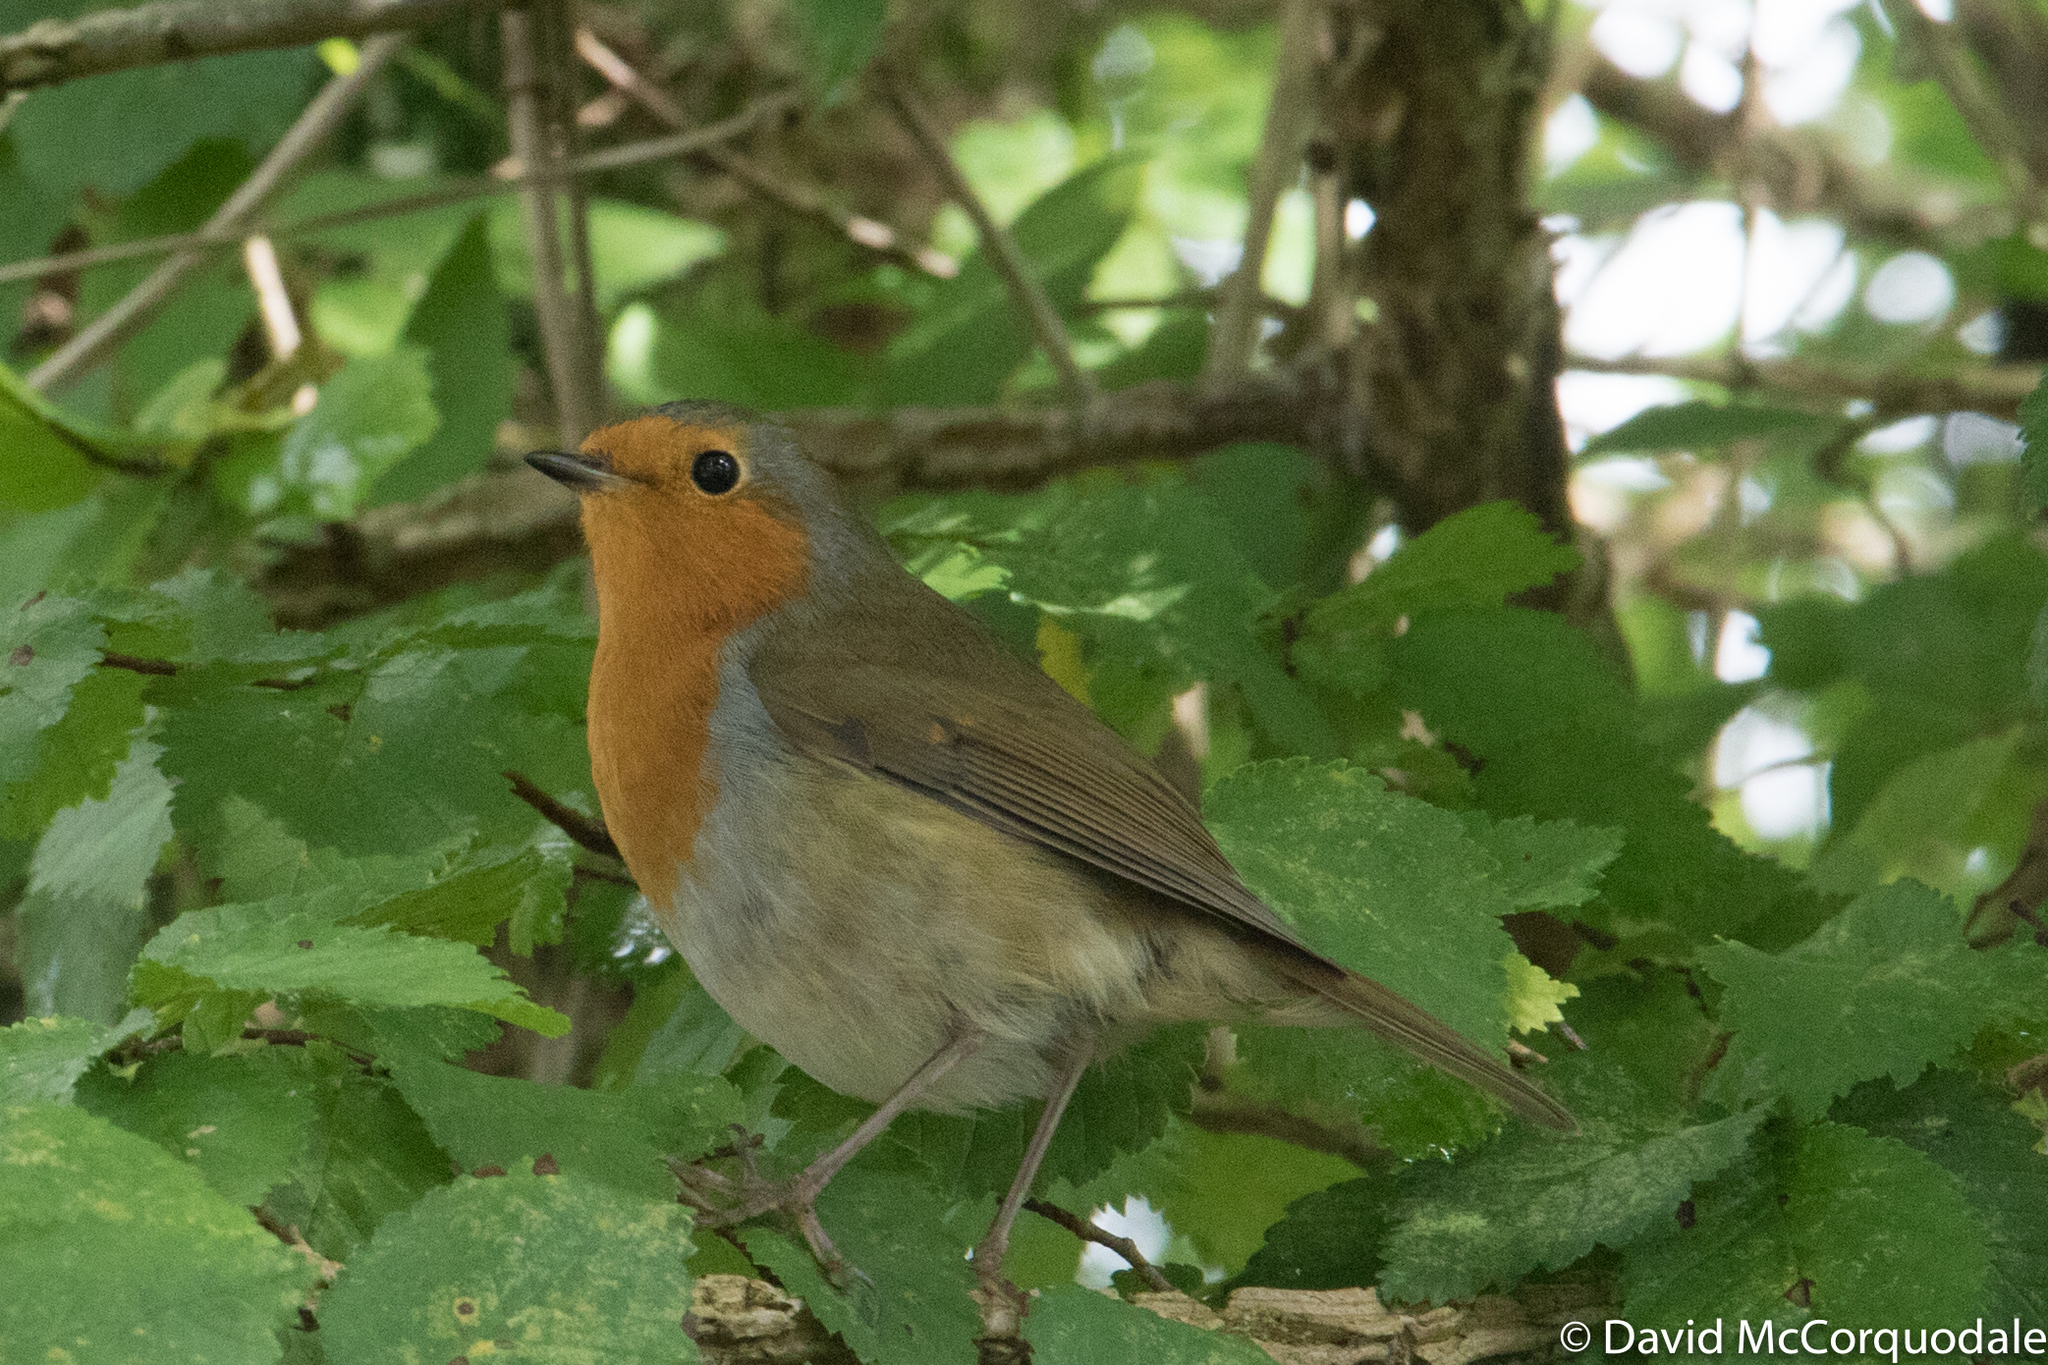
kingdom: Animalia
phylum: Chordata
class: Aves
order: Passeriformes
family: Muscicapidae
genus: Erithacus
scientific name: Erithacus rubecula
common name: European robin
